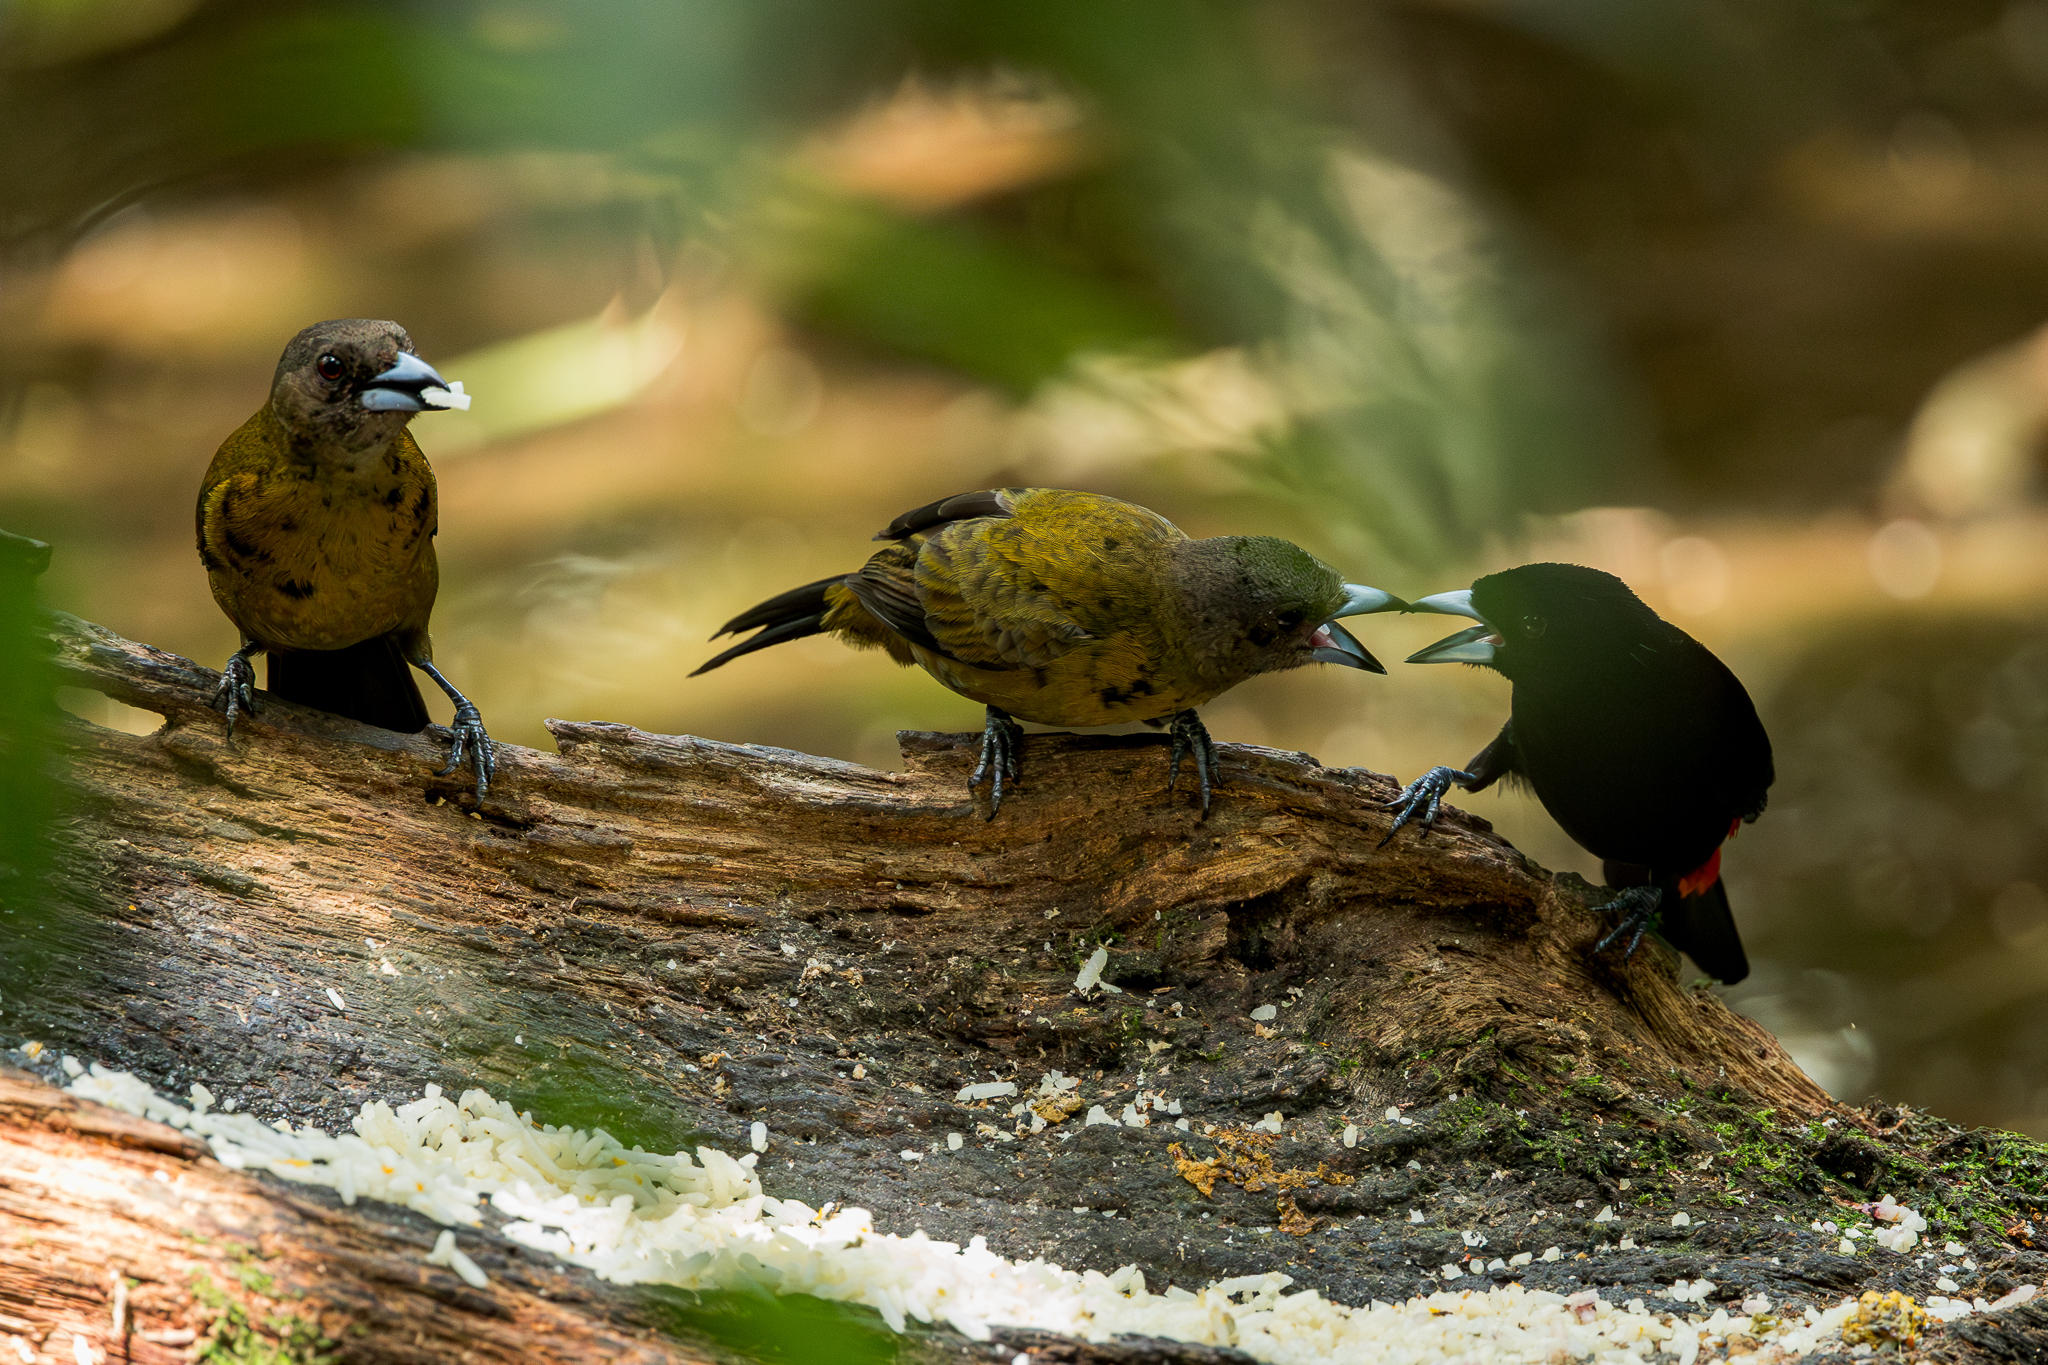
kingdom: Animalia
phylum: Chordata
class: Aves
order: Passeriformes
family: Thraupidae
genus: Ramphocelus
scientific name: Ramphocelus passerinii
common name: Passerini's tanager
